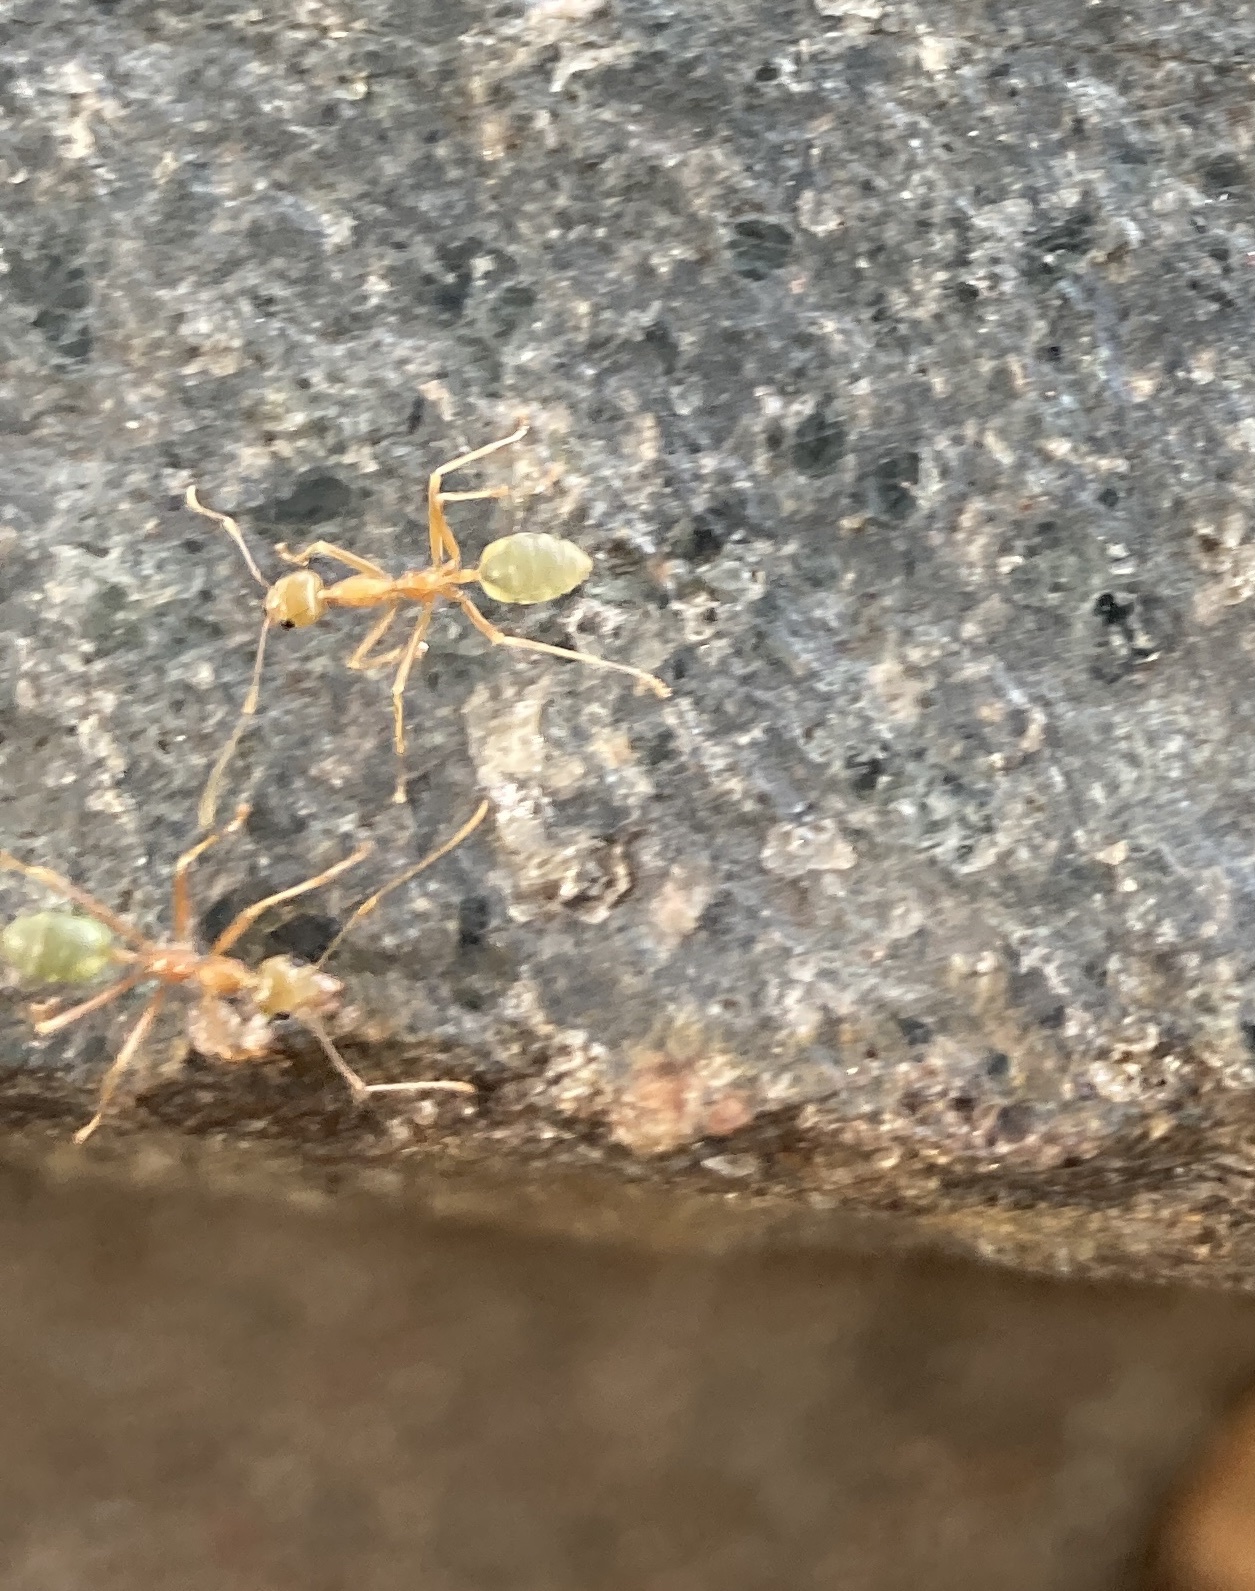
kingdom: Animalia
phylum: Arthropoda
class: Insecta
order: Hymenoptera
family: Formicidae
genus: Oecophylla
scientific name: Oecophylla smaragdina
